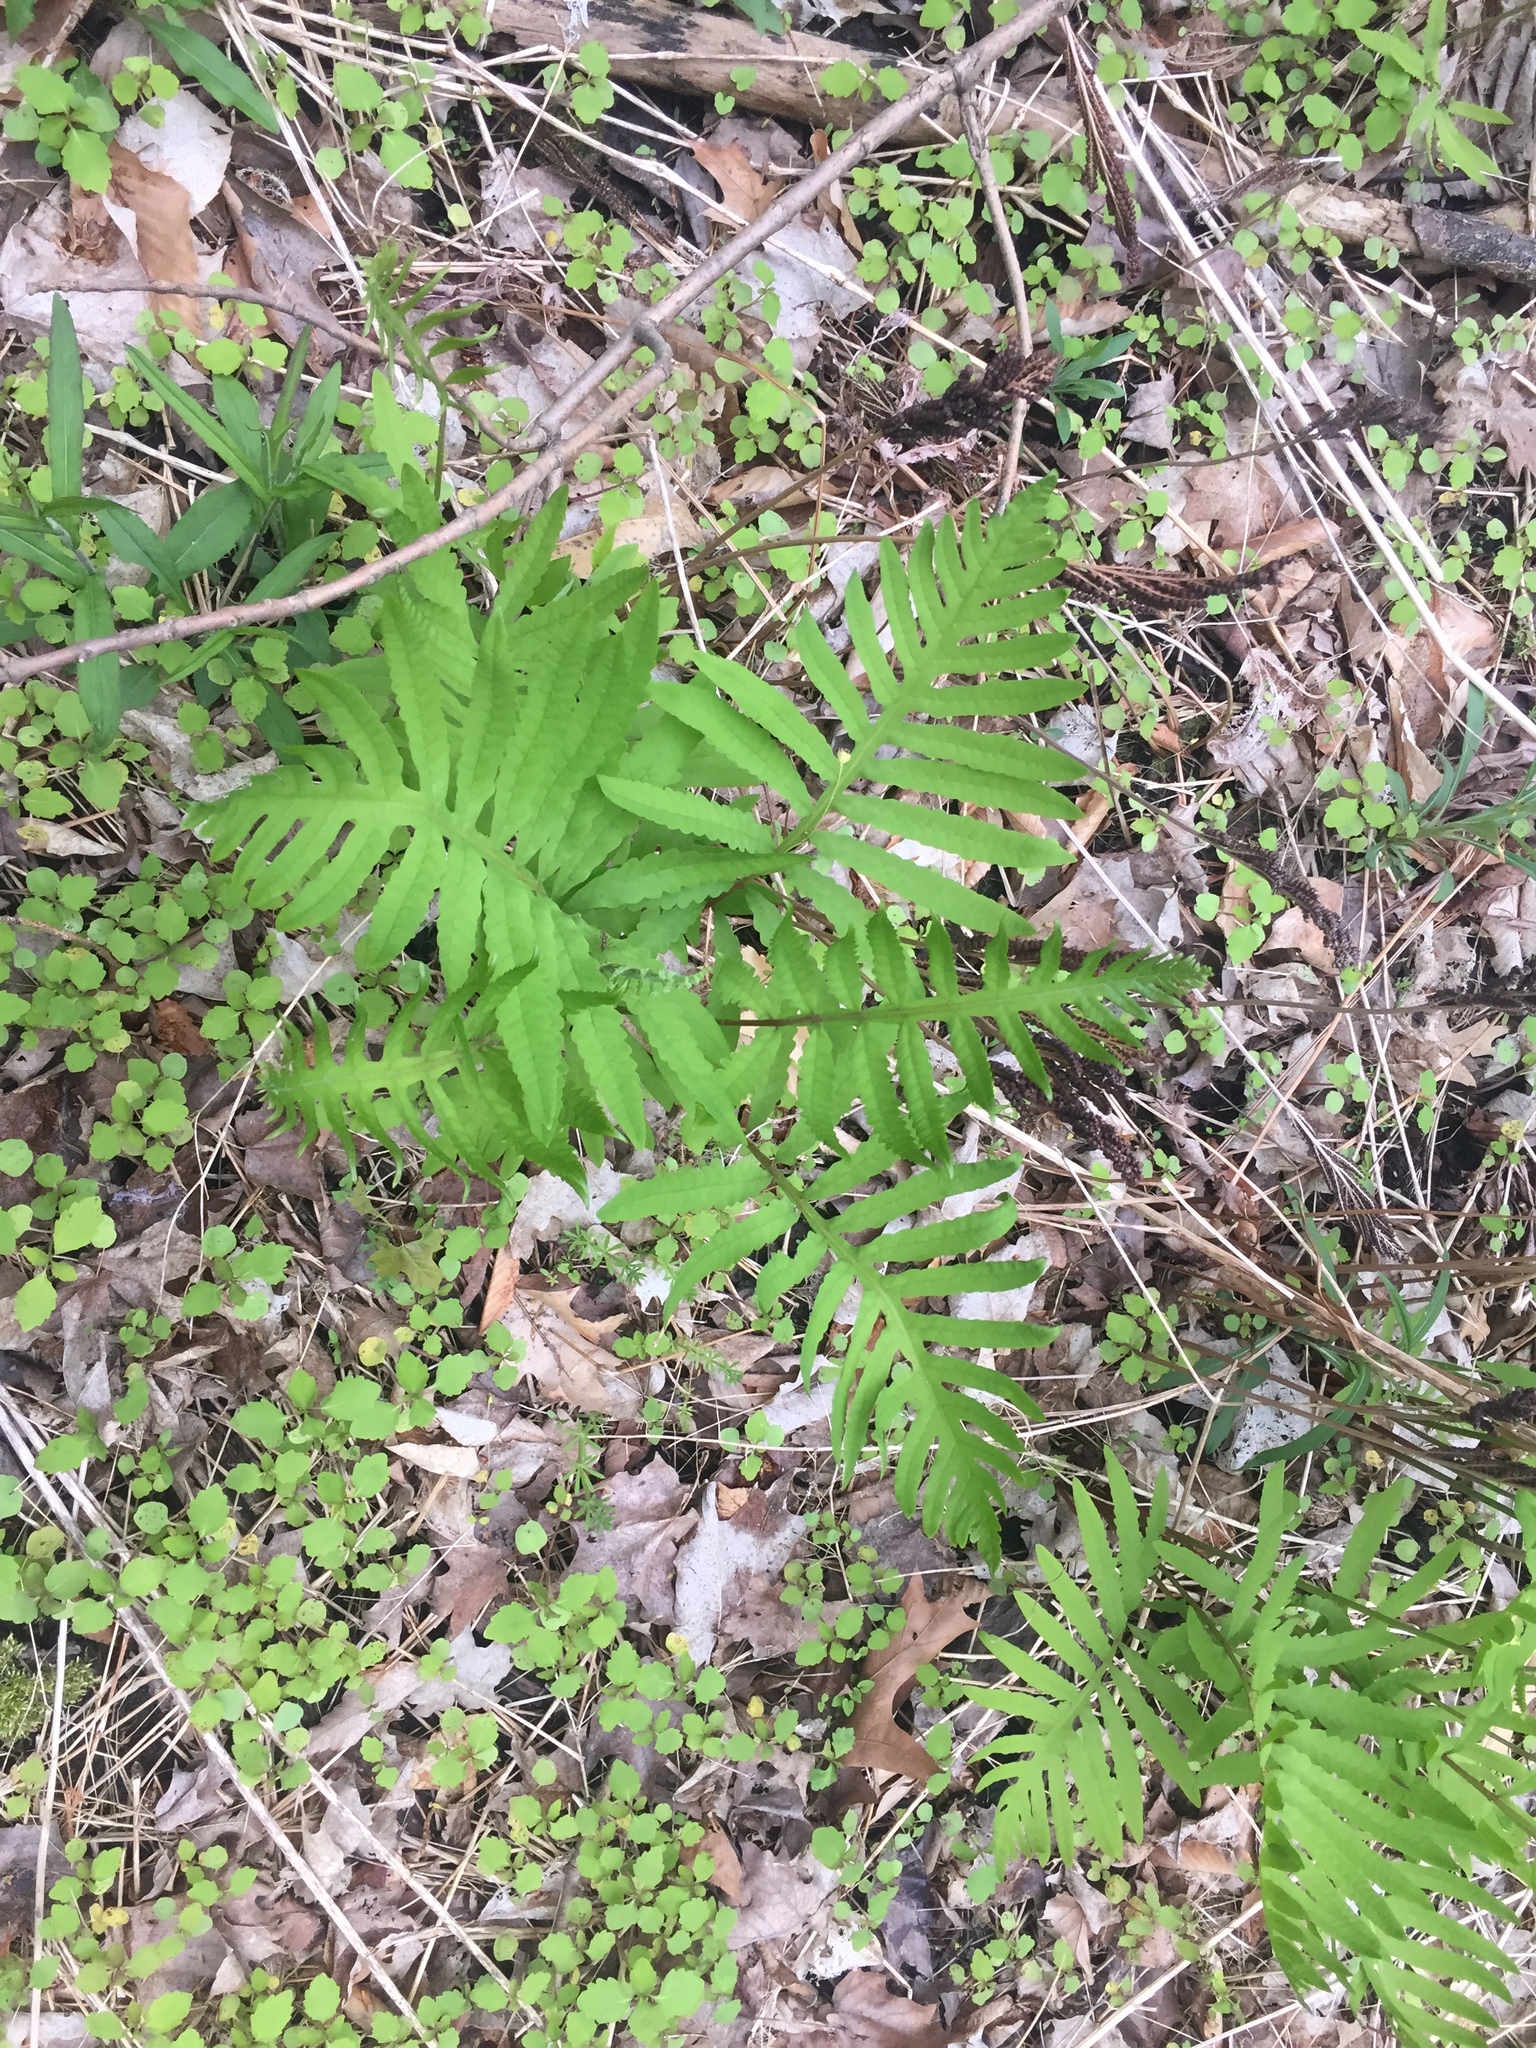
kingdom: Plantae
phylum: Tracheophyta
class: Polypodiopsida
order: Polypodiales
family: Onocleaceae
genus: Onoclea
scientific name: Onoclea sensibilis
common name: Sensitive fern
